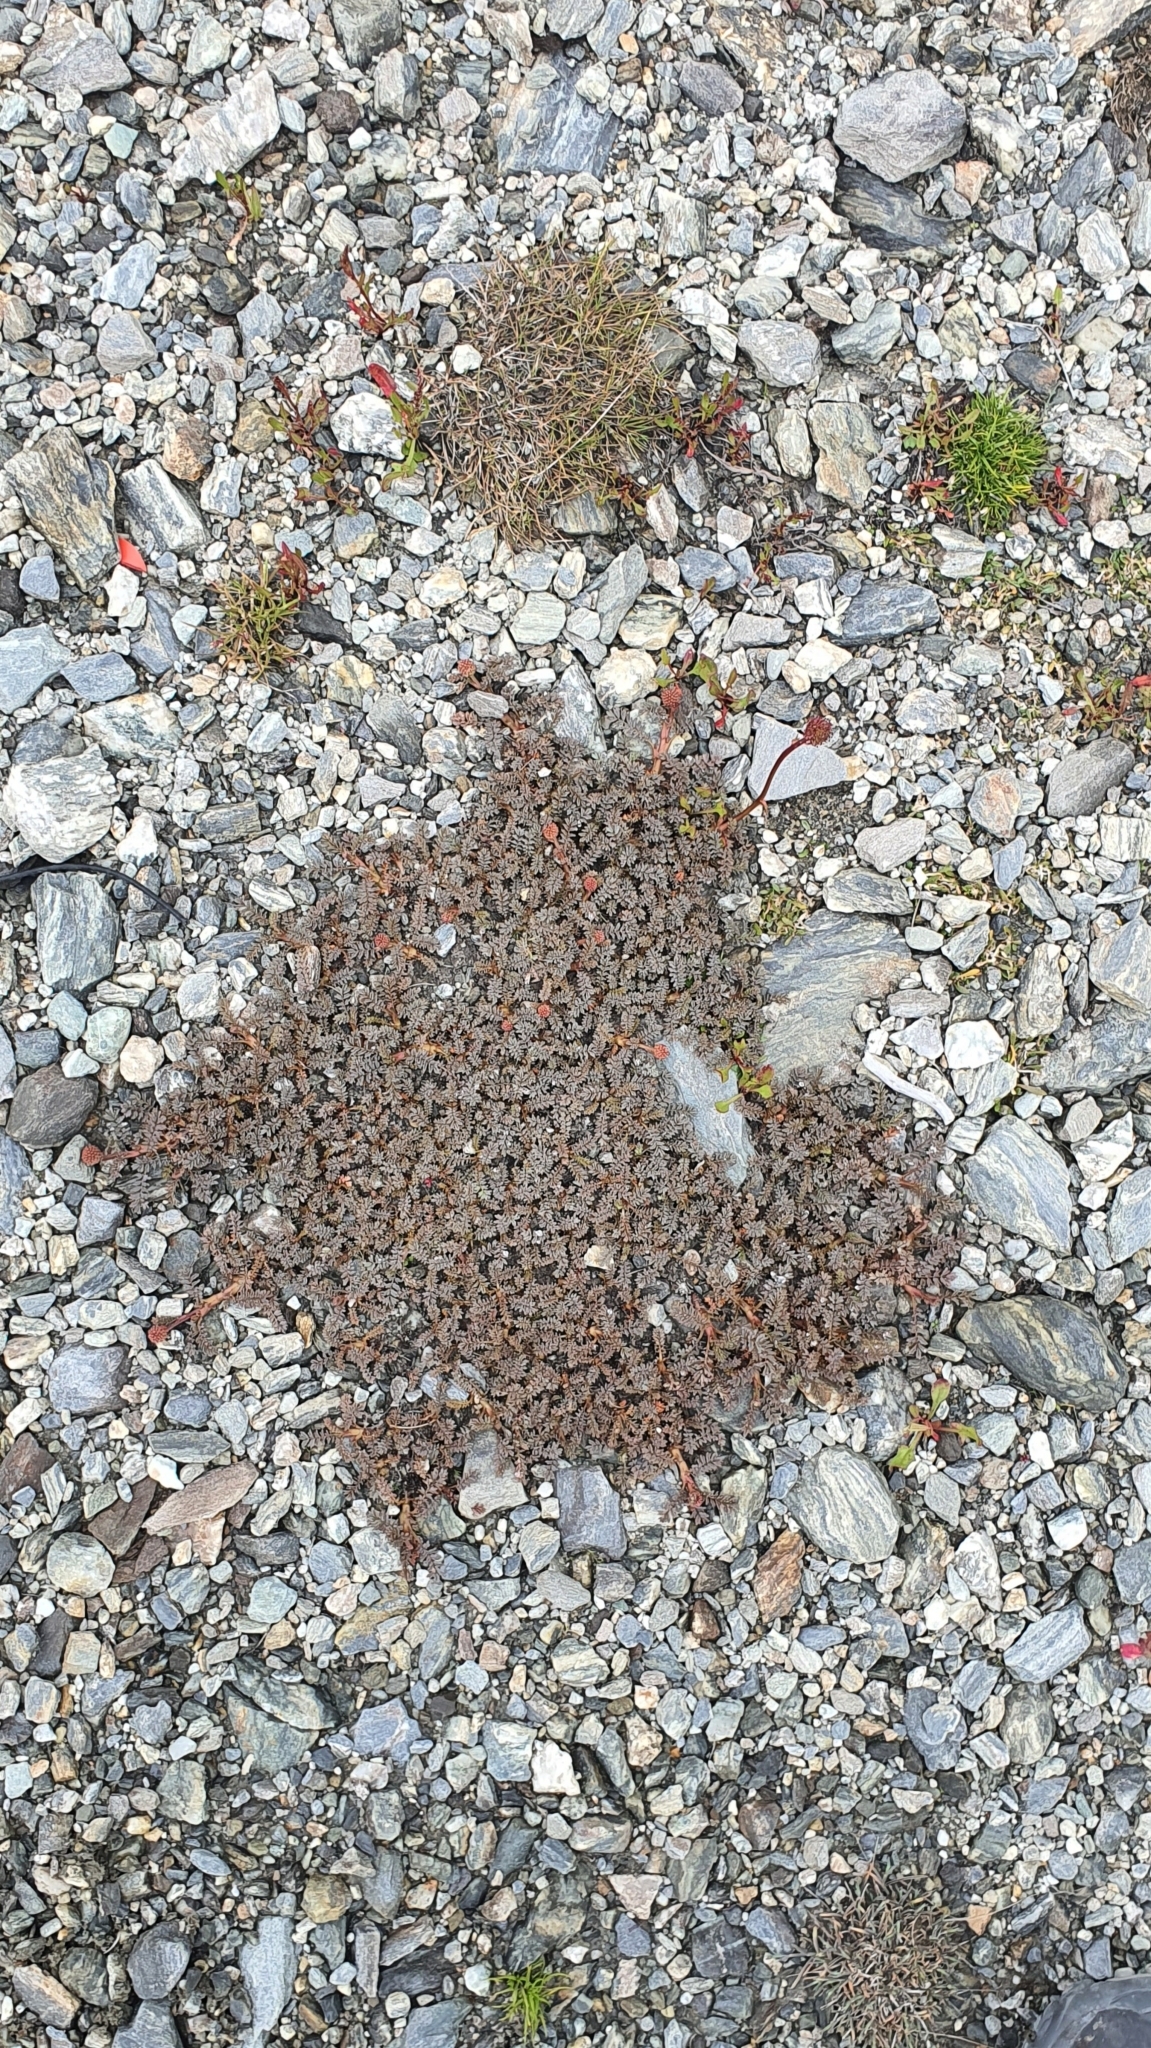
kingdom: Plantae
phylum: Tracheophyta
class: Magnoliopsida
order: Rosales
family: Rosaceae
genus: Acaena
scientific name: Acaena saccaticupula
